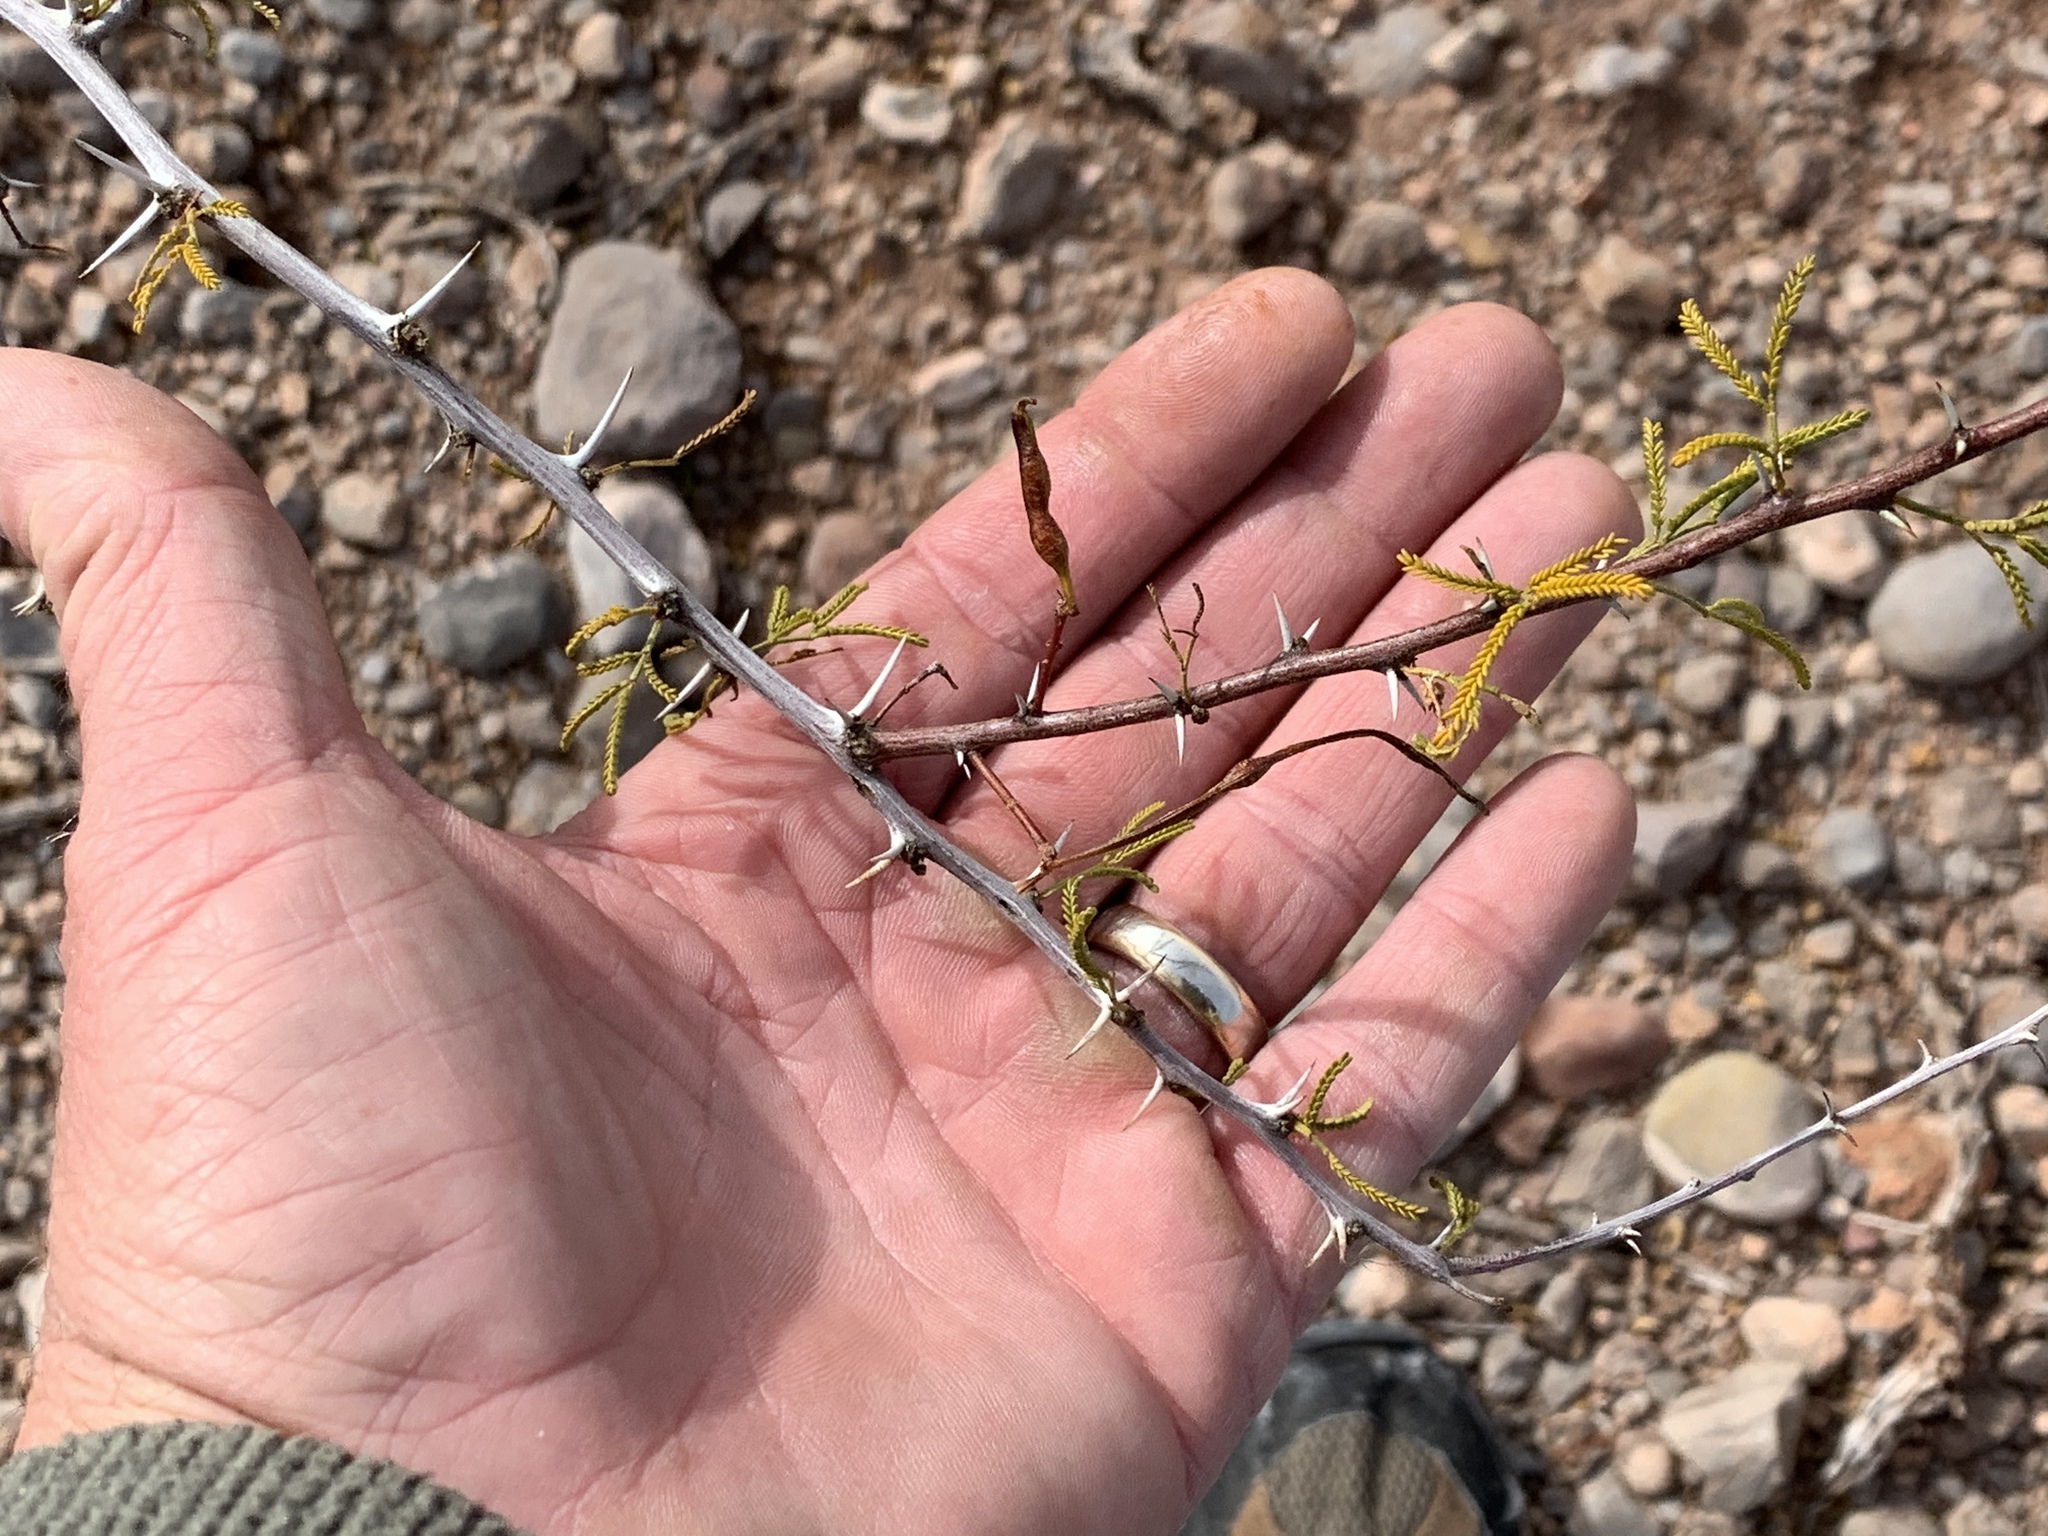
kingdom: Plantae
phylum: Tracheophyta
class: Magnoliopsida
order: Fabales
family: Fabaceae
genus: Vachellia
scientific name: Vachellia constricta
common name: Mescat acacia
